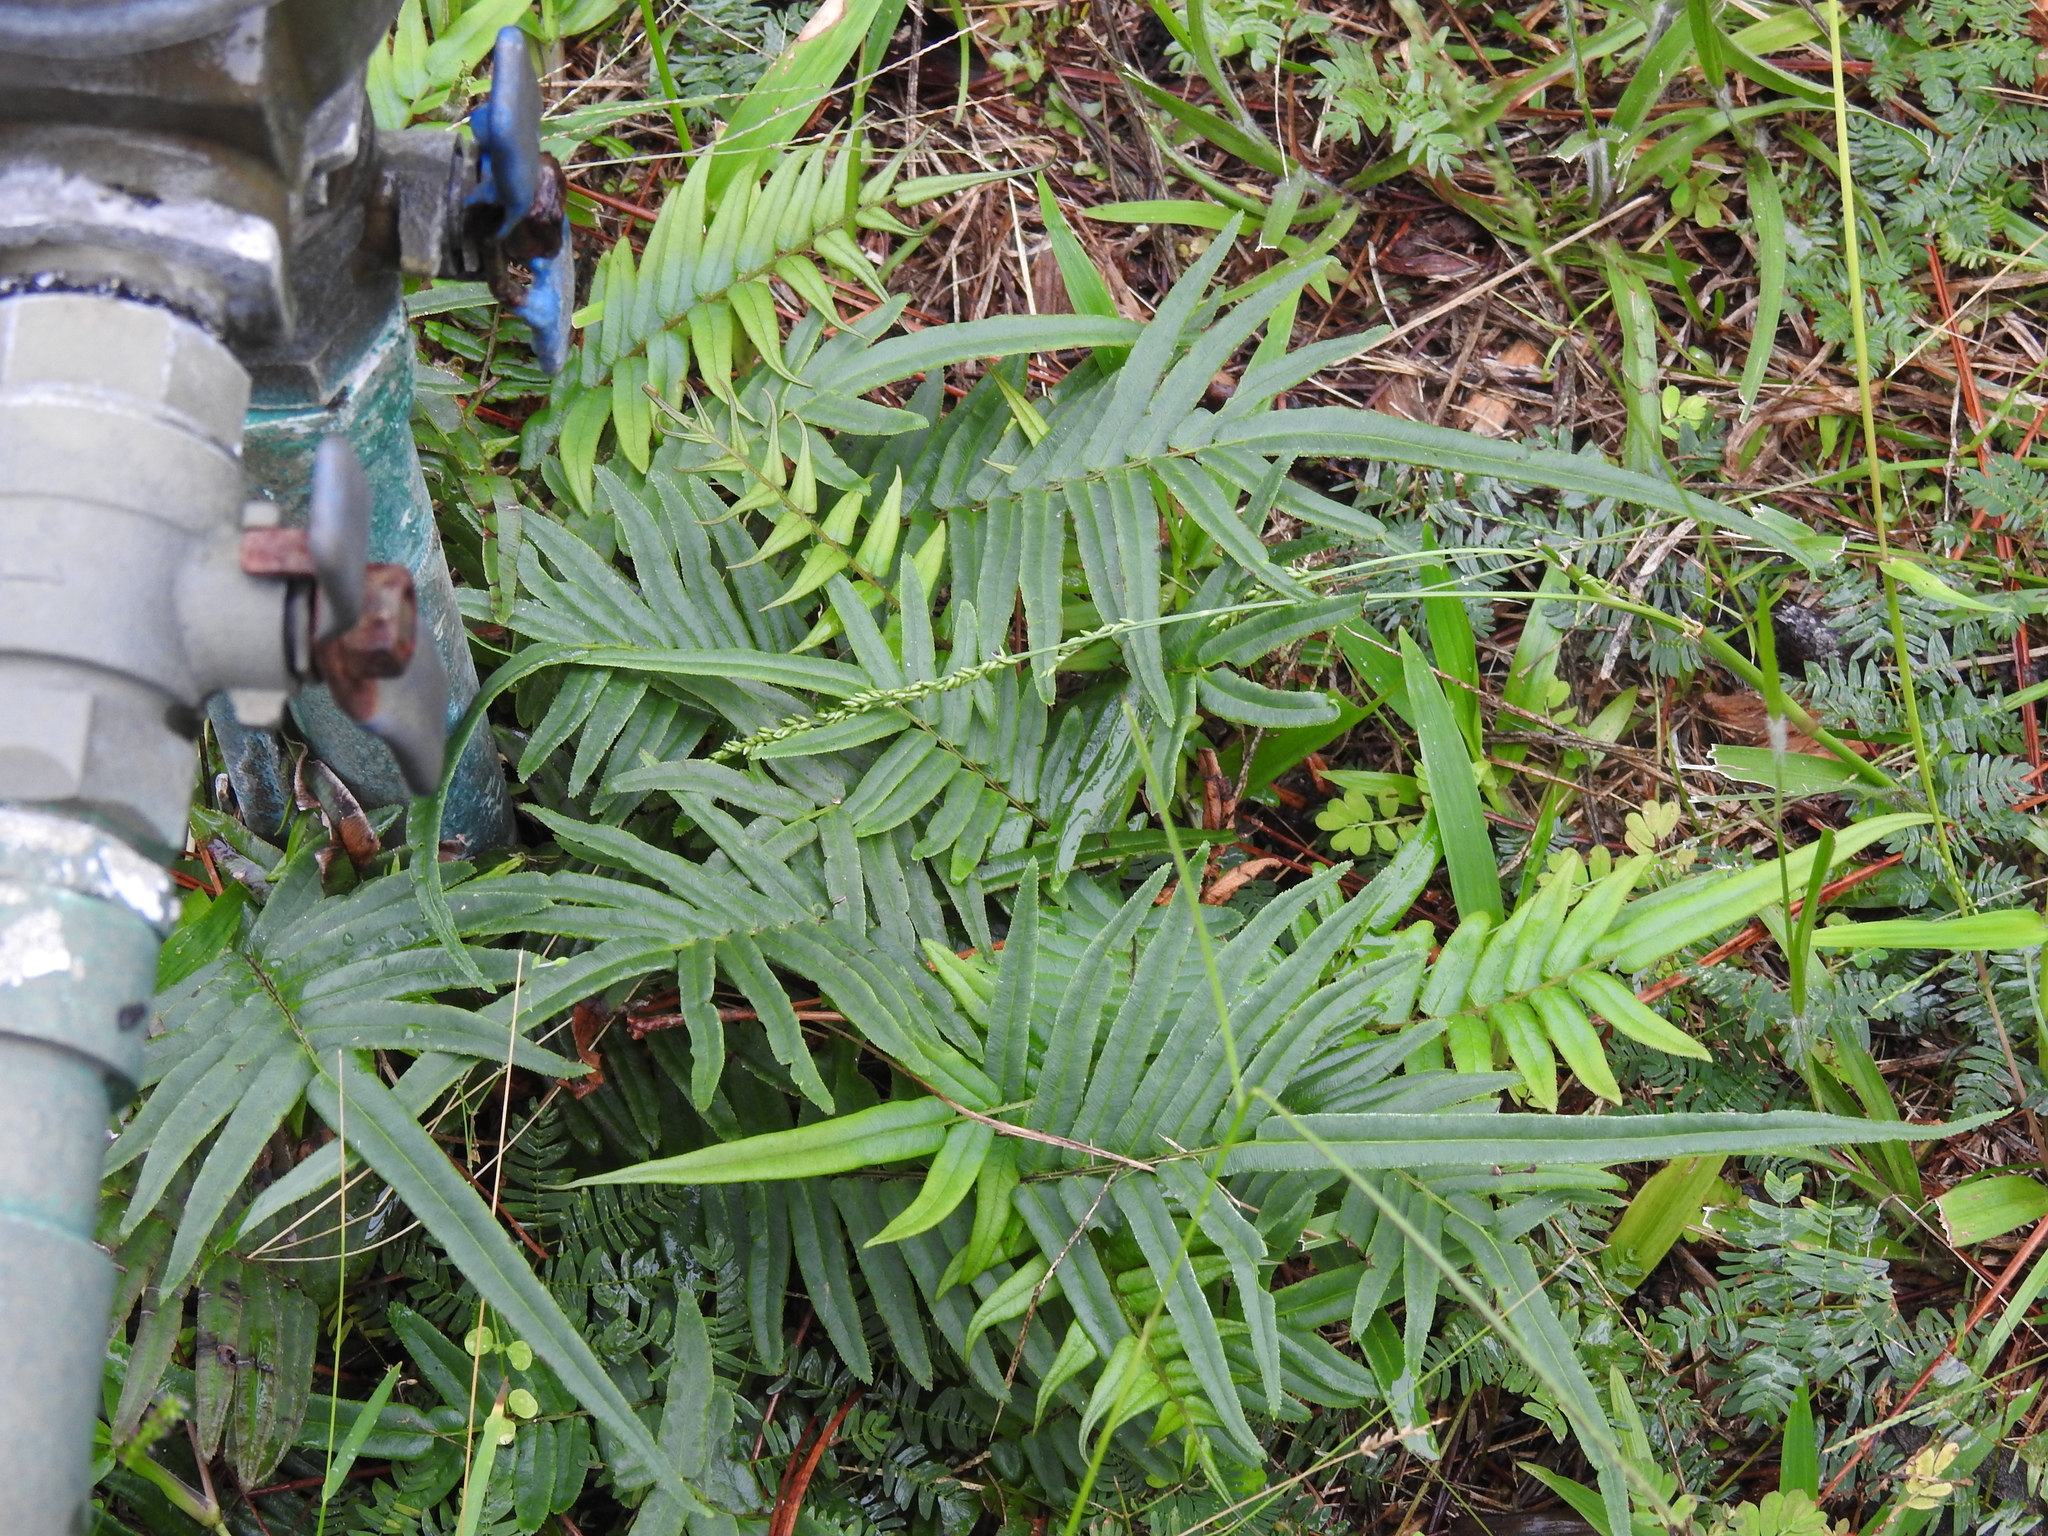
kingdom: Plantae
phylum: Tracheophyta
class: Polypodiopsida
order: Polypodiales
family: Pteridaceae
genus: Pteris
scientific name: Pteris vittata
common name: Ladder brake
